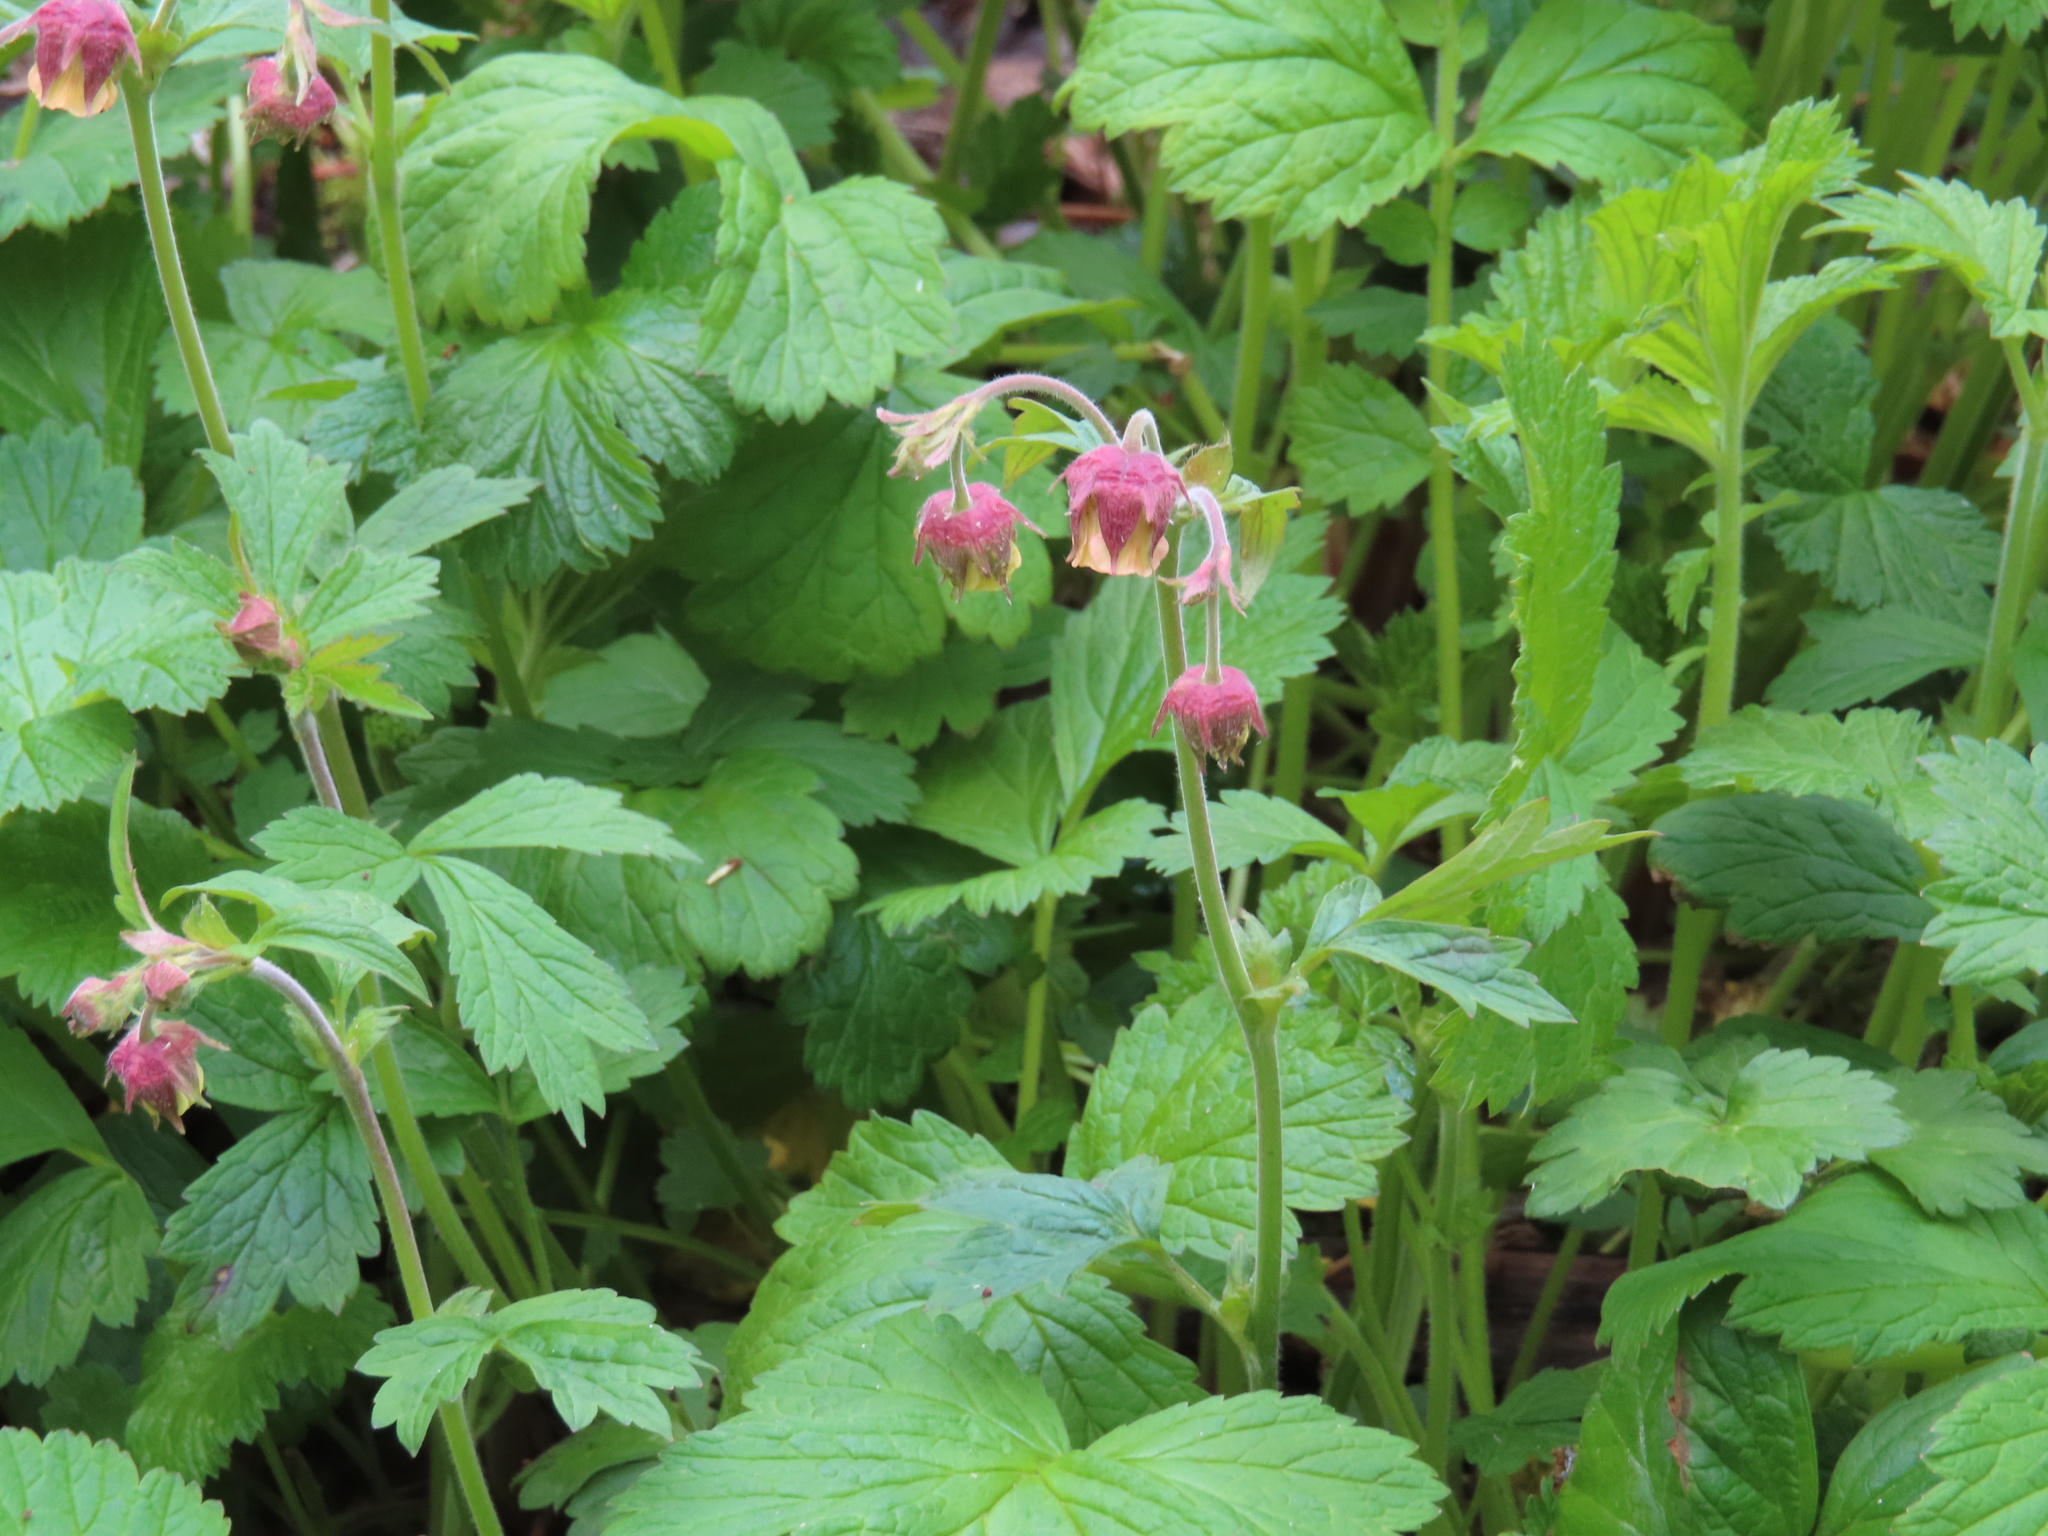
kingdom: Plantae
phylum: Tracheophyta
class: Magnoliopsida
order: Rosales
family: Rosaceae
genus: Geum
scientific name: Geum rivale
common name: Water avens
